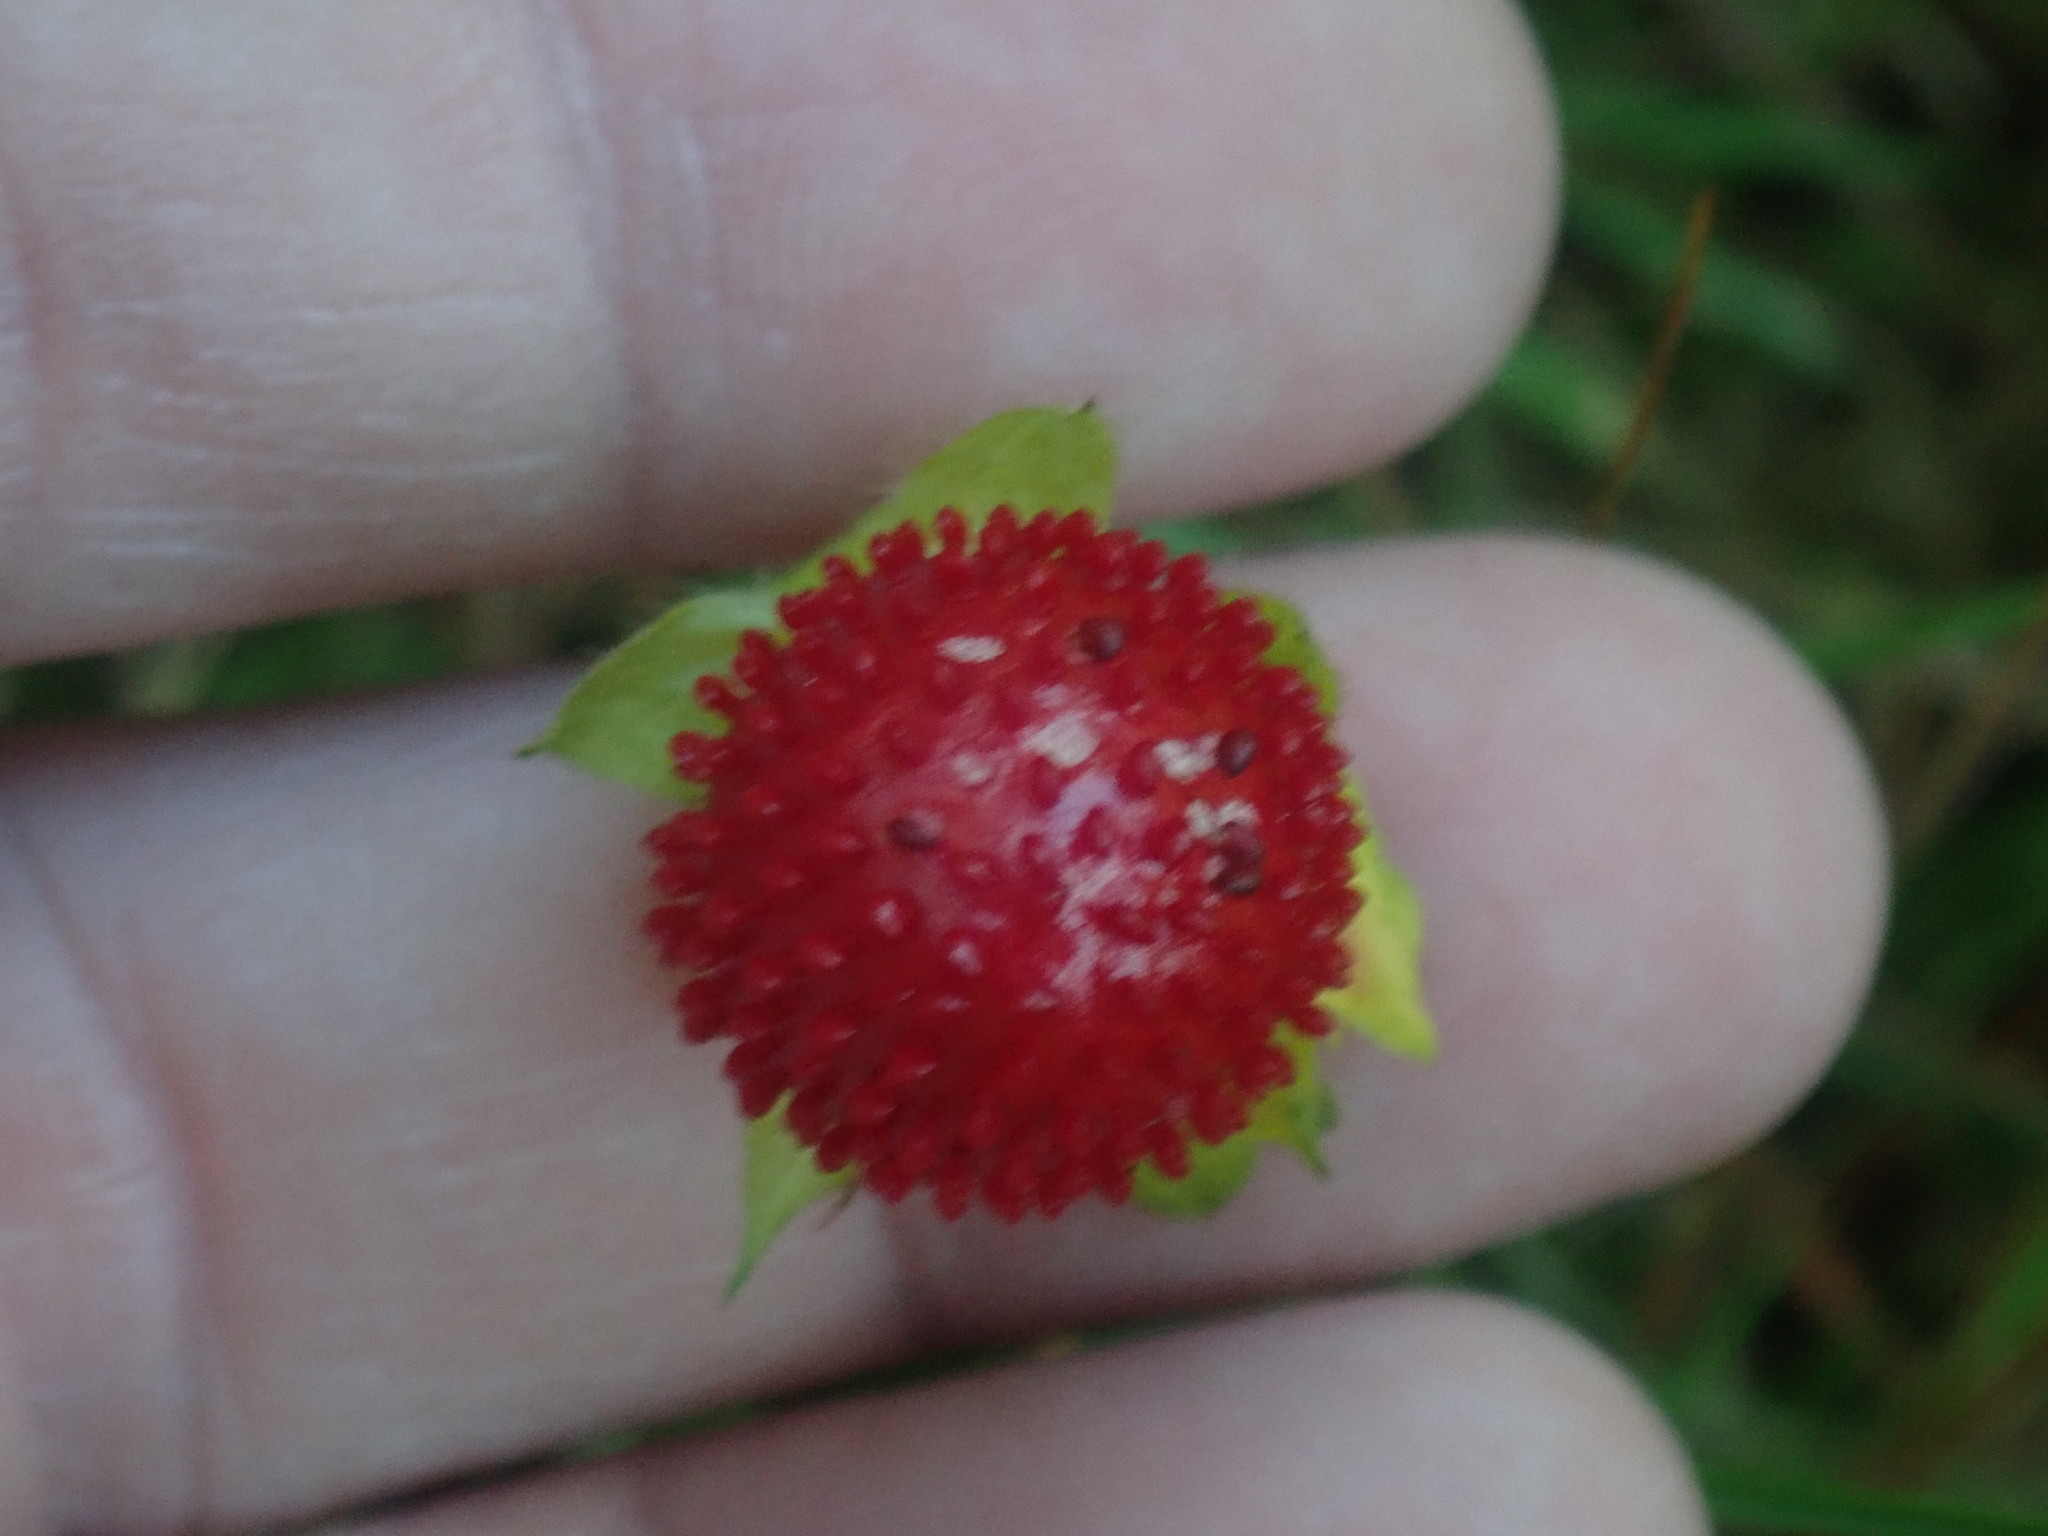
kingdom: Plantae
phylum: Tracheophyta
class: Magnoliopsida
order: Rosales
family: Rosaceae
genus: Potentilla
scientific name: Potentilla indica
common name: Yellow-flowered strawberry
